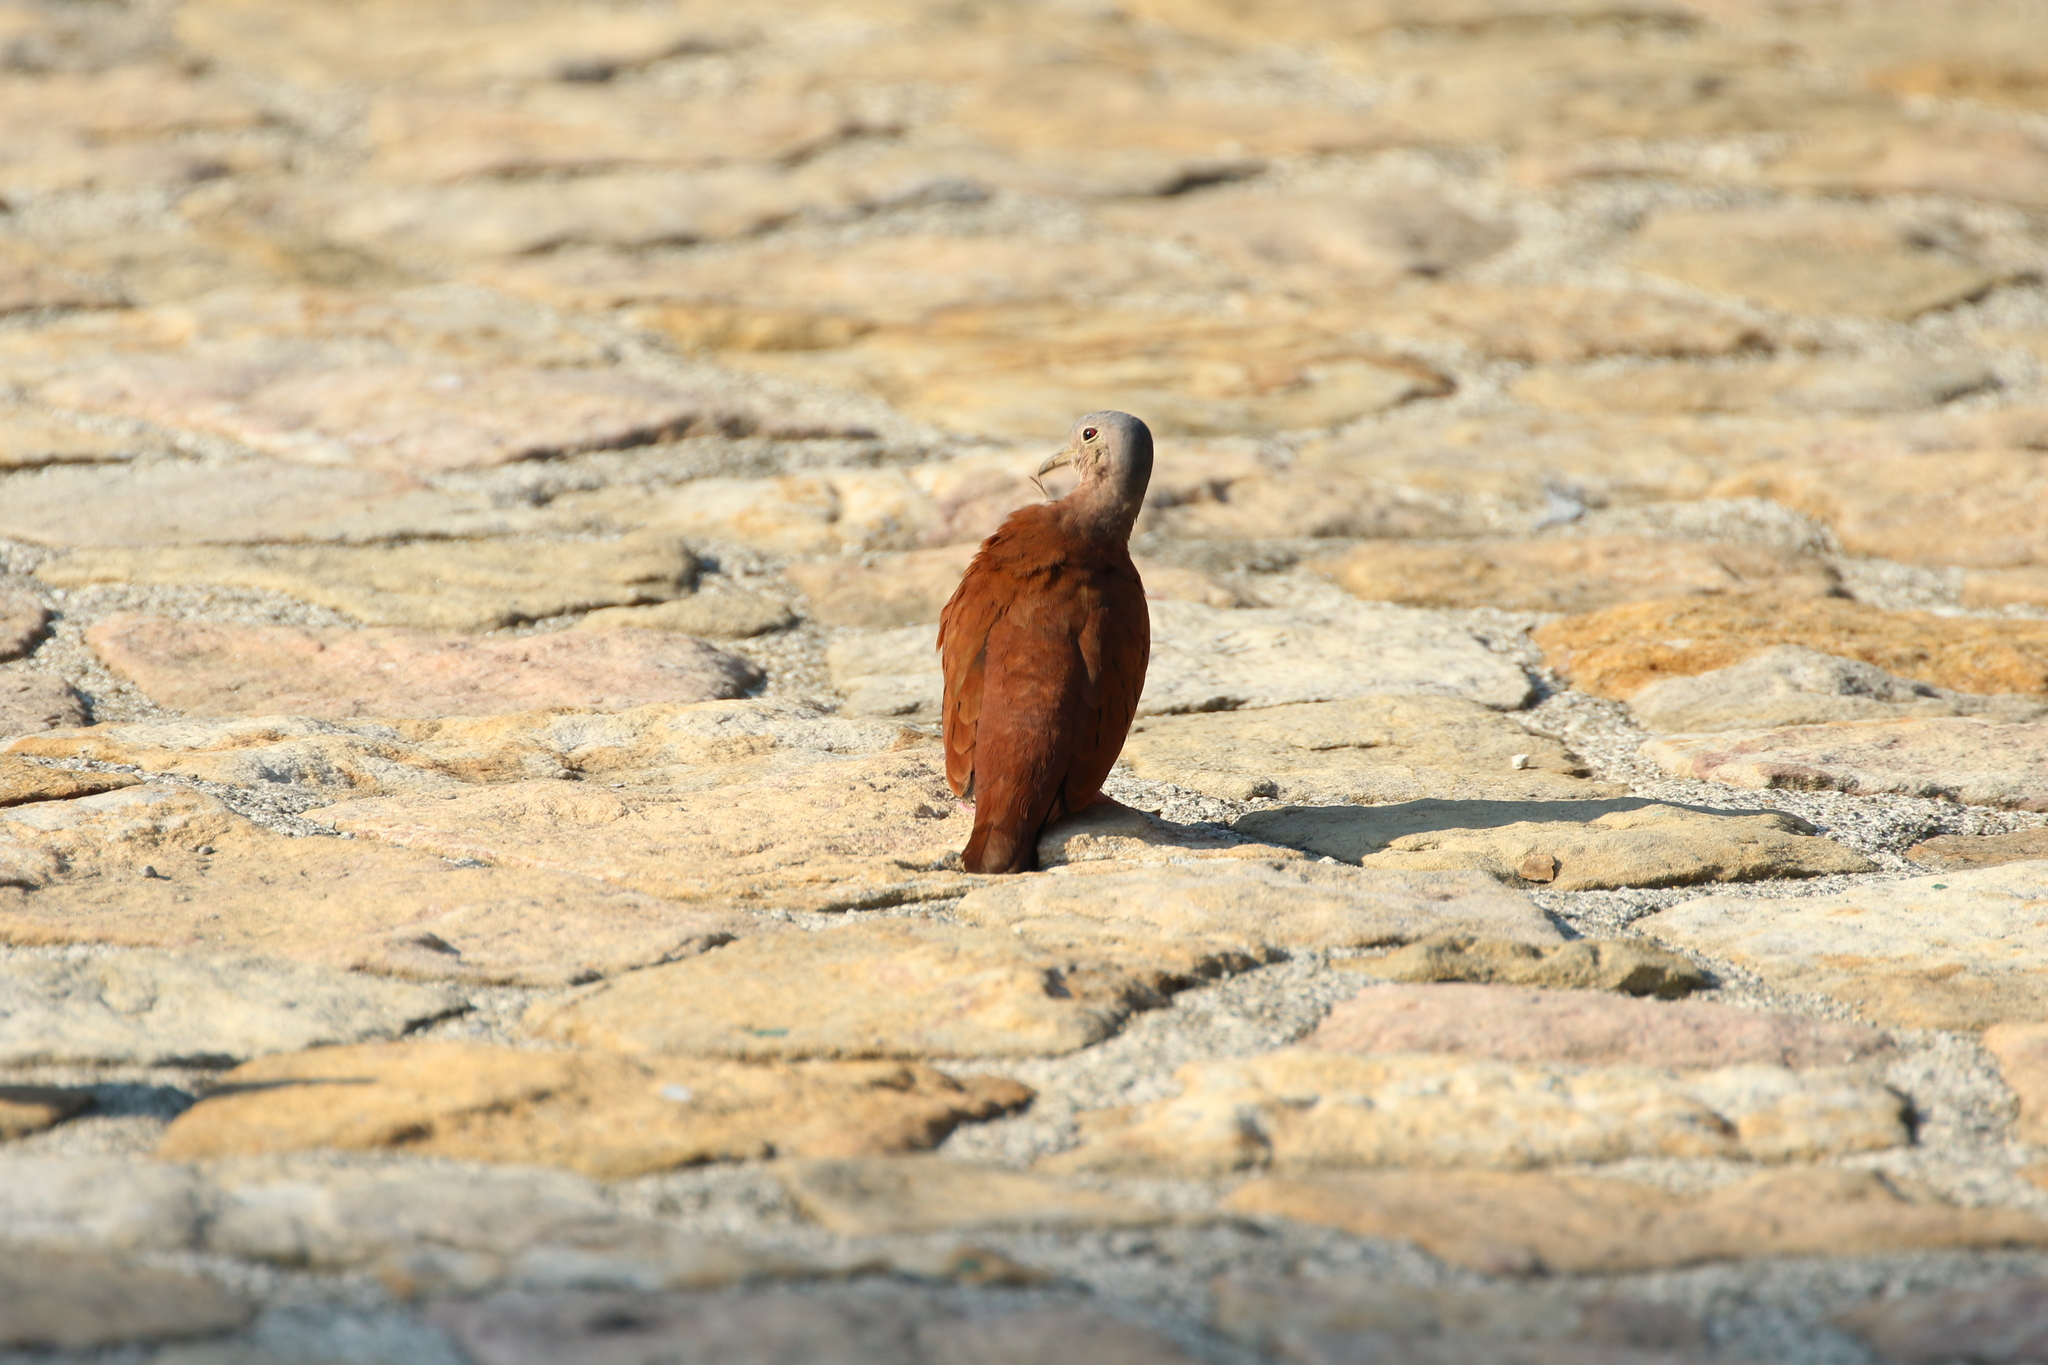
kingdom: Animalia
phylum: Chordata
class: Aves
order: Columbiformes
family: Columbidae
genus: Columbina
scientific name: Columbina talpacoti
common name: Ruddy ground dove
